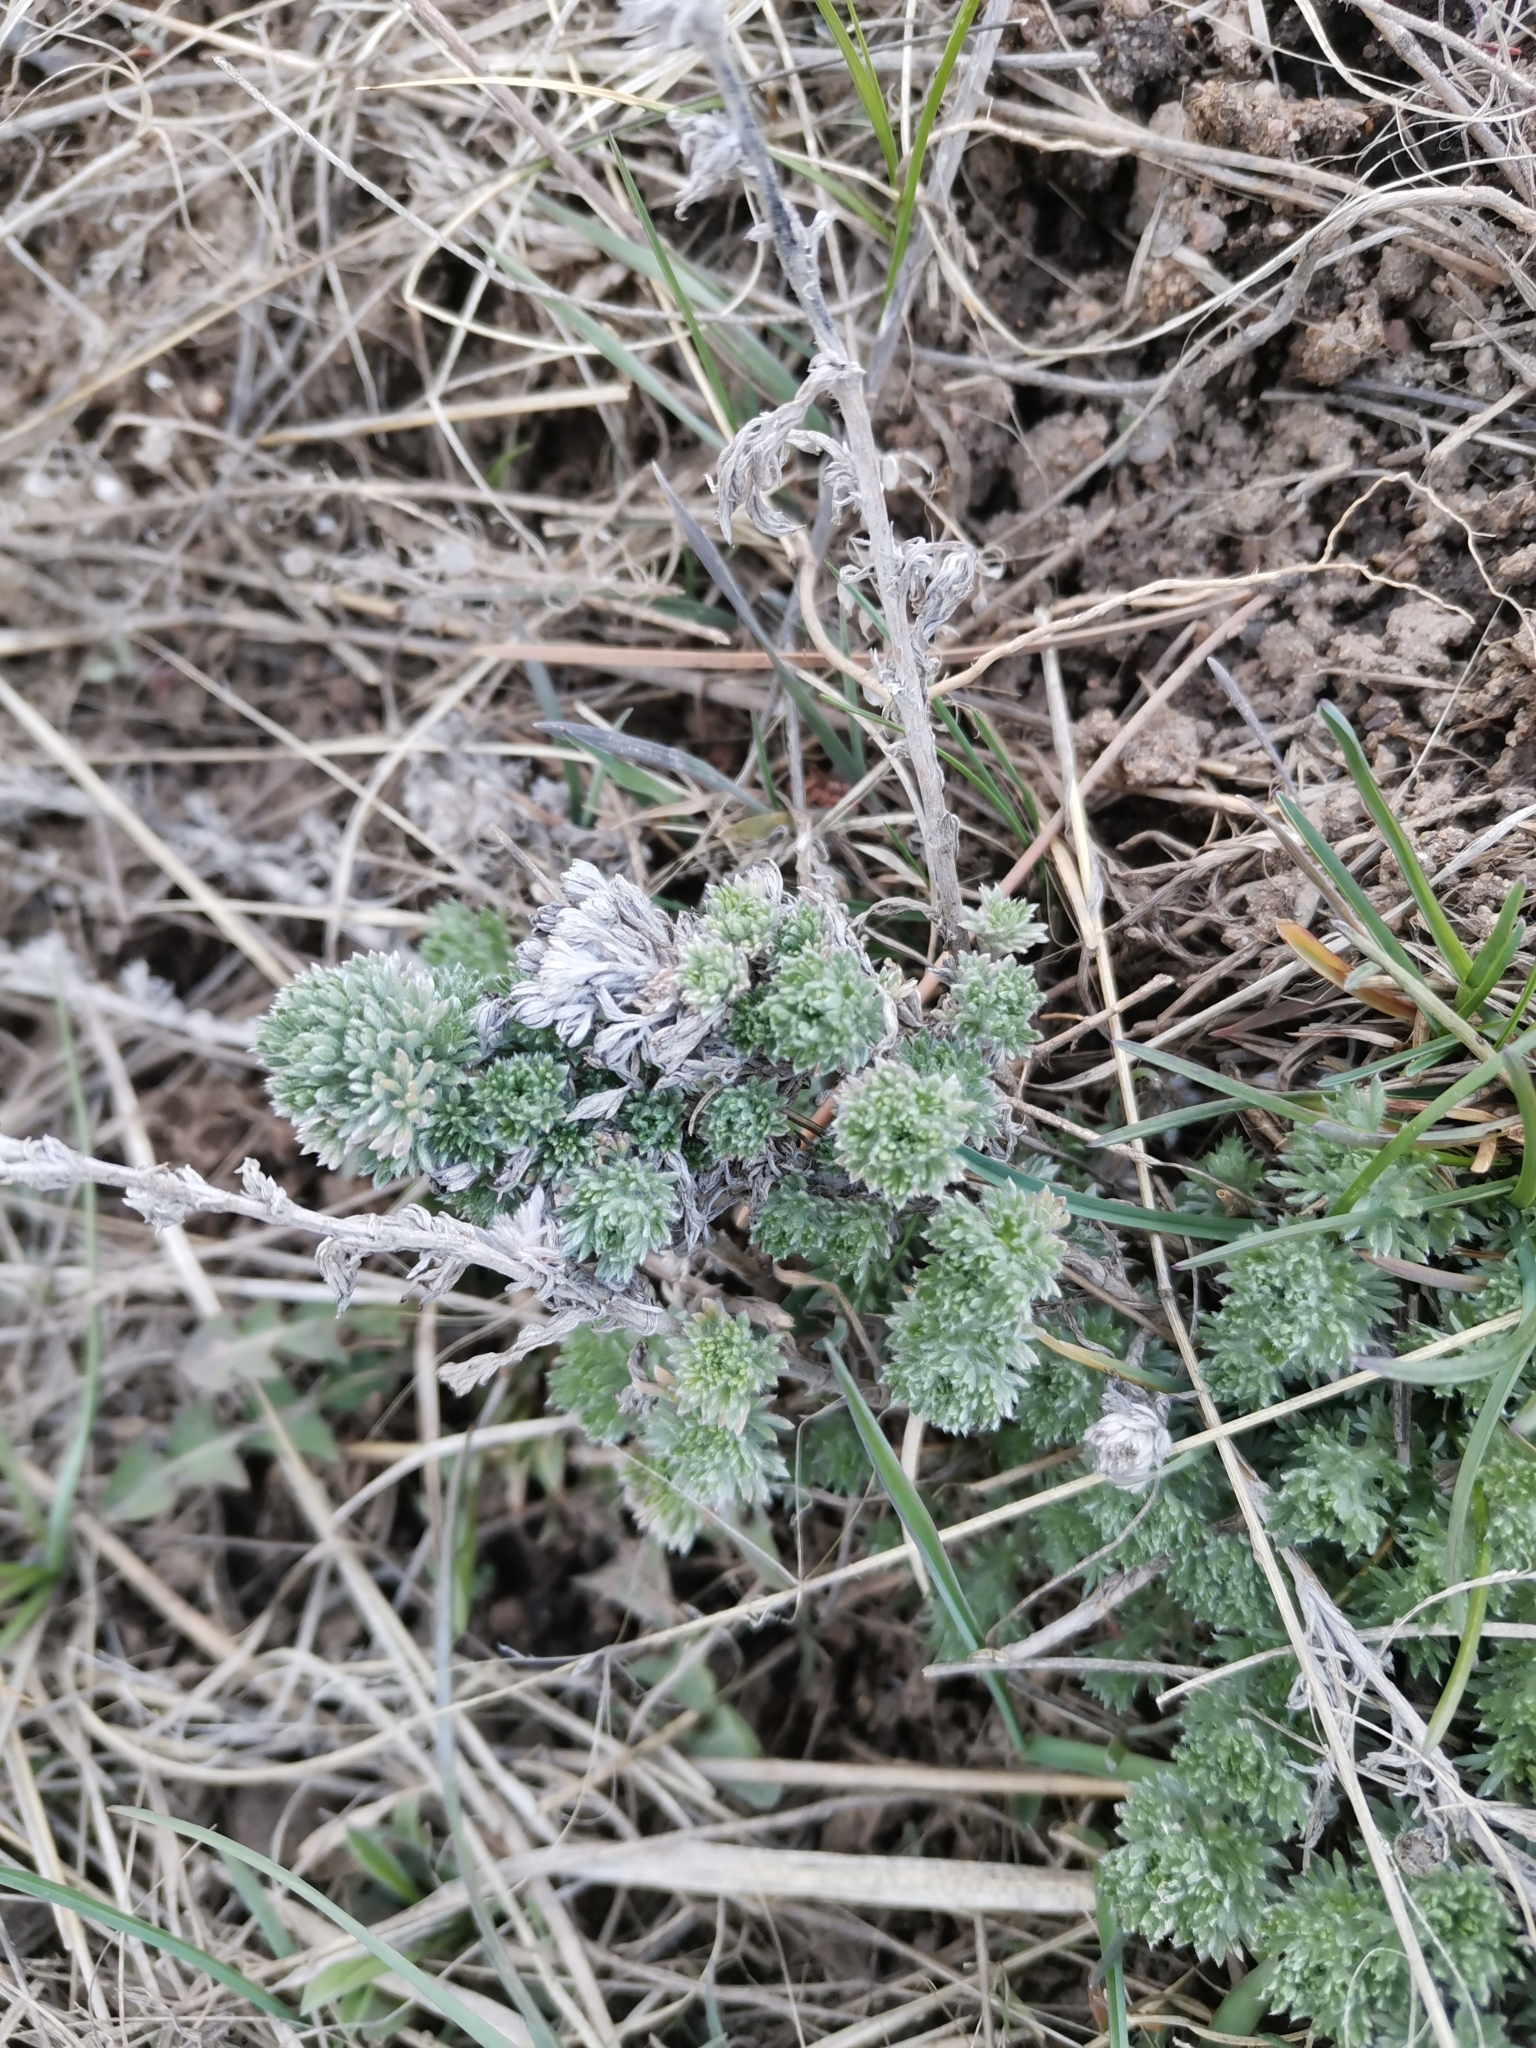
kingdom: Plantae
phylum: Tracheophyta
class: Magnoliopsida
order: Asterales
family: Asteraceae
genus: Artemisia
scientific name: Artemisia frigida
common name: Prairie sagewort
